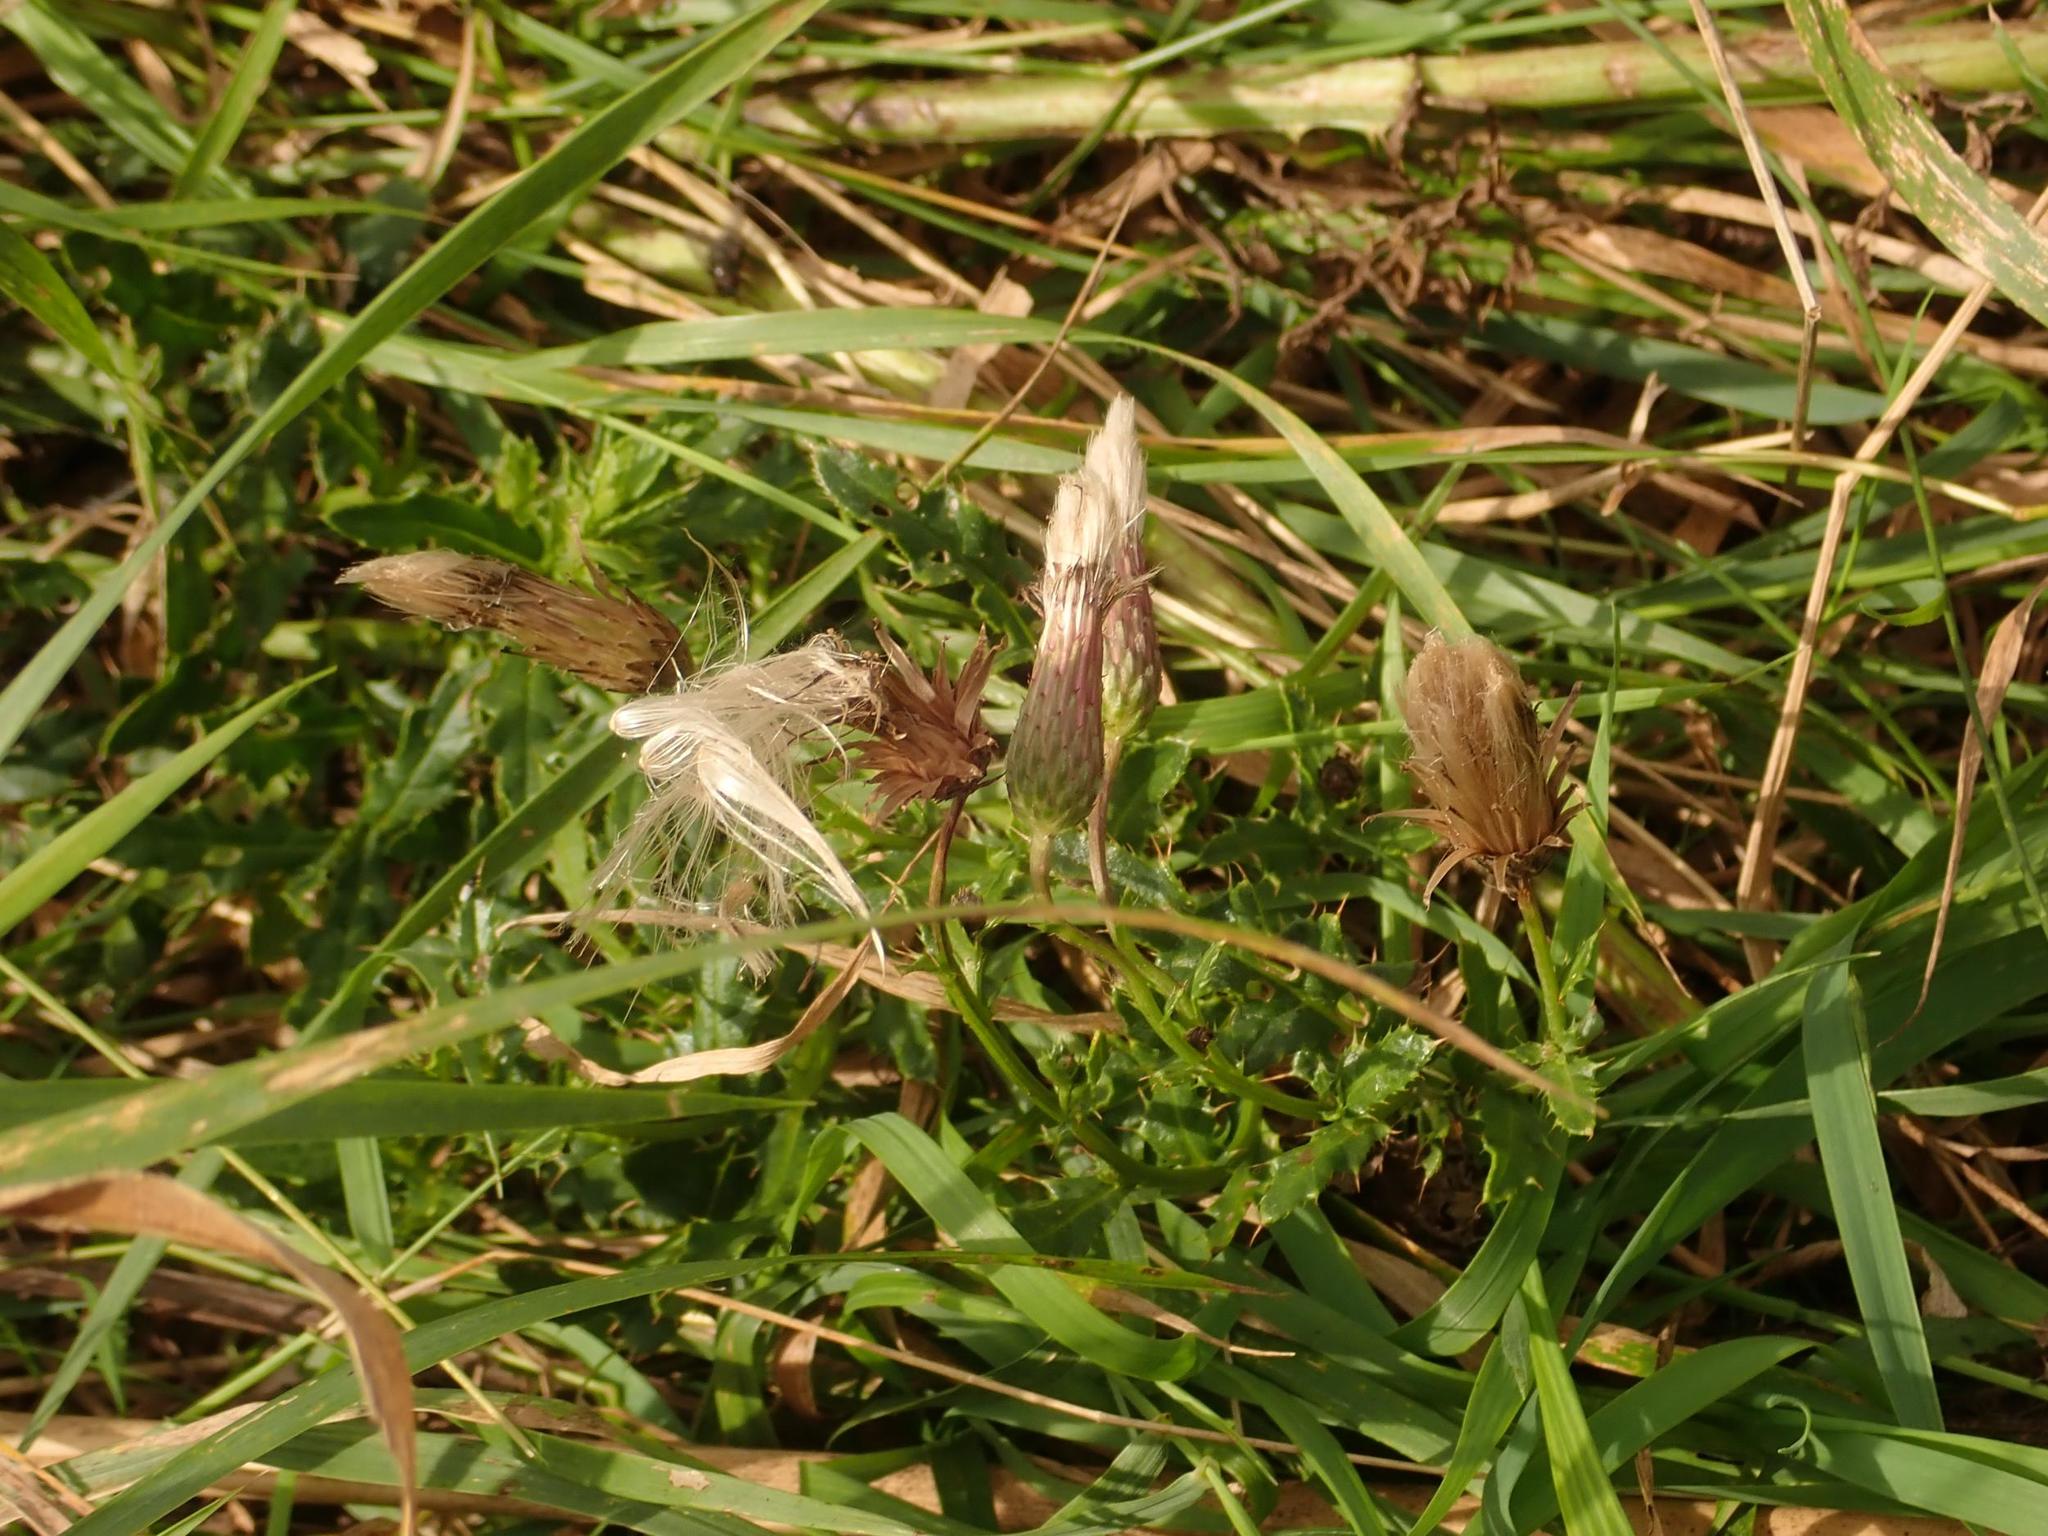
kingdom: Plantae
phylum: Tracheophyta
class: Magnoliopsida
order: Asterales
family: Asteraceae
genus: Cirsium
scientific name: Cirsium arvense
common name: Creeping thistle
